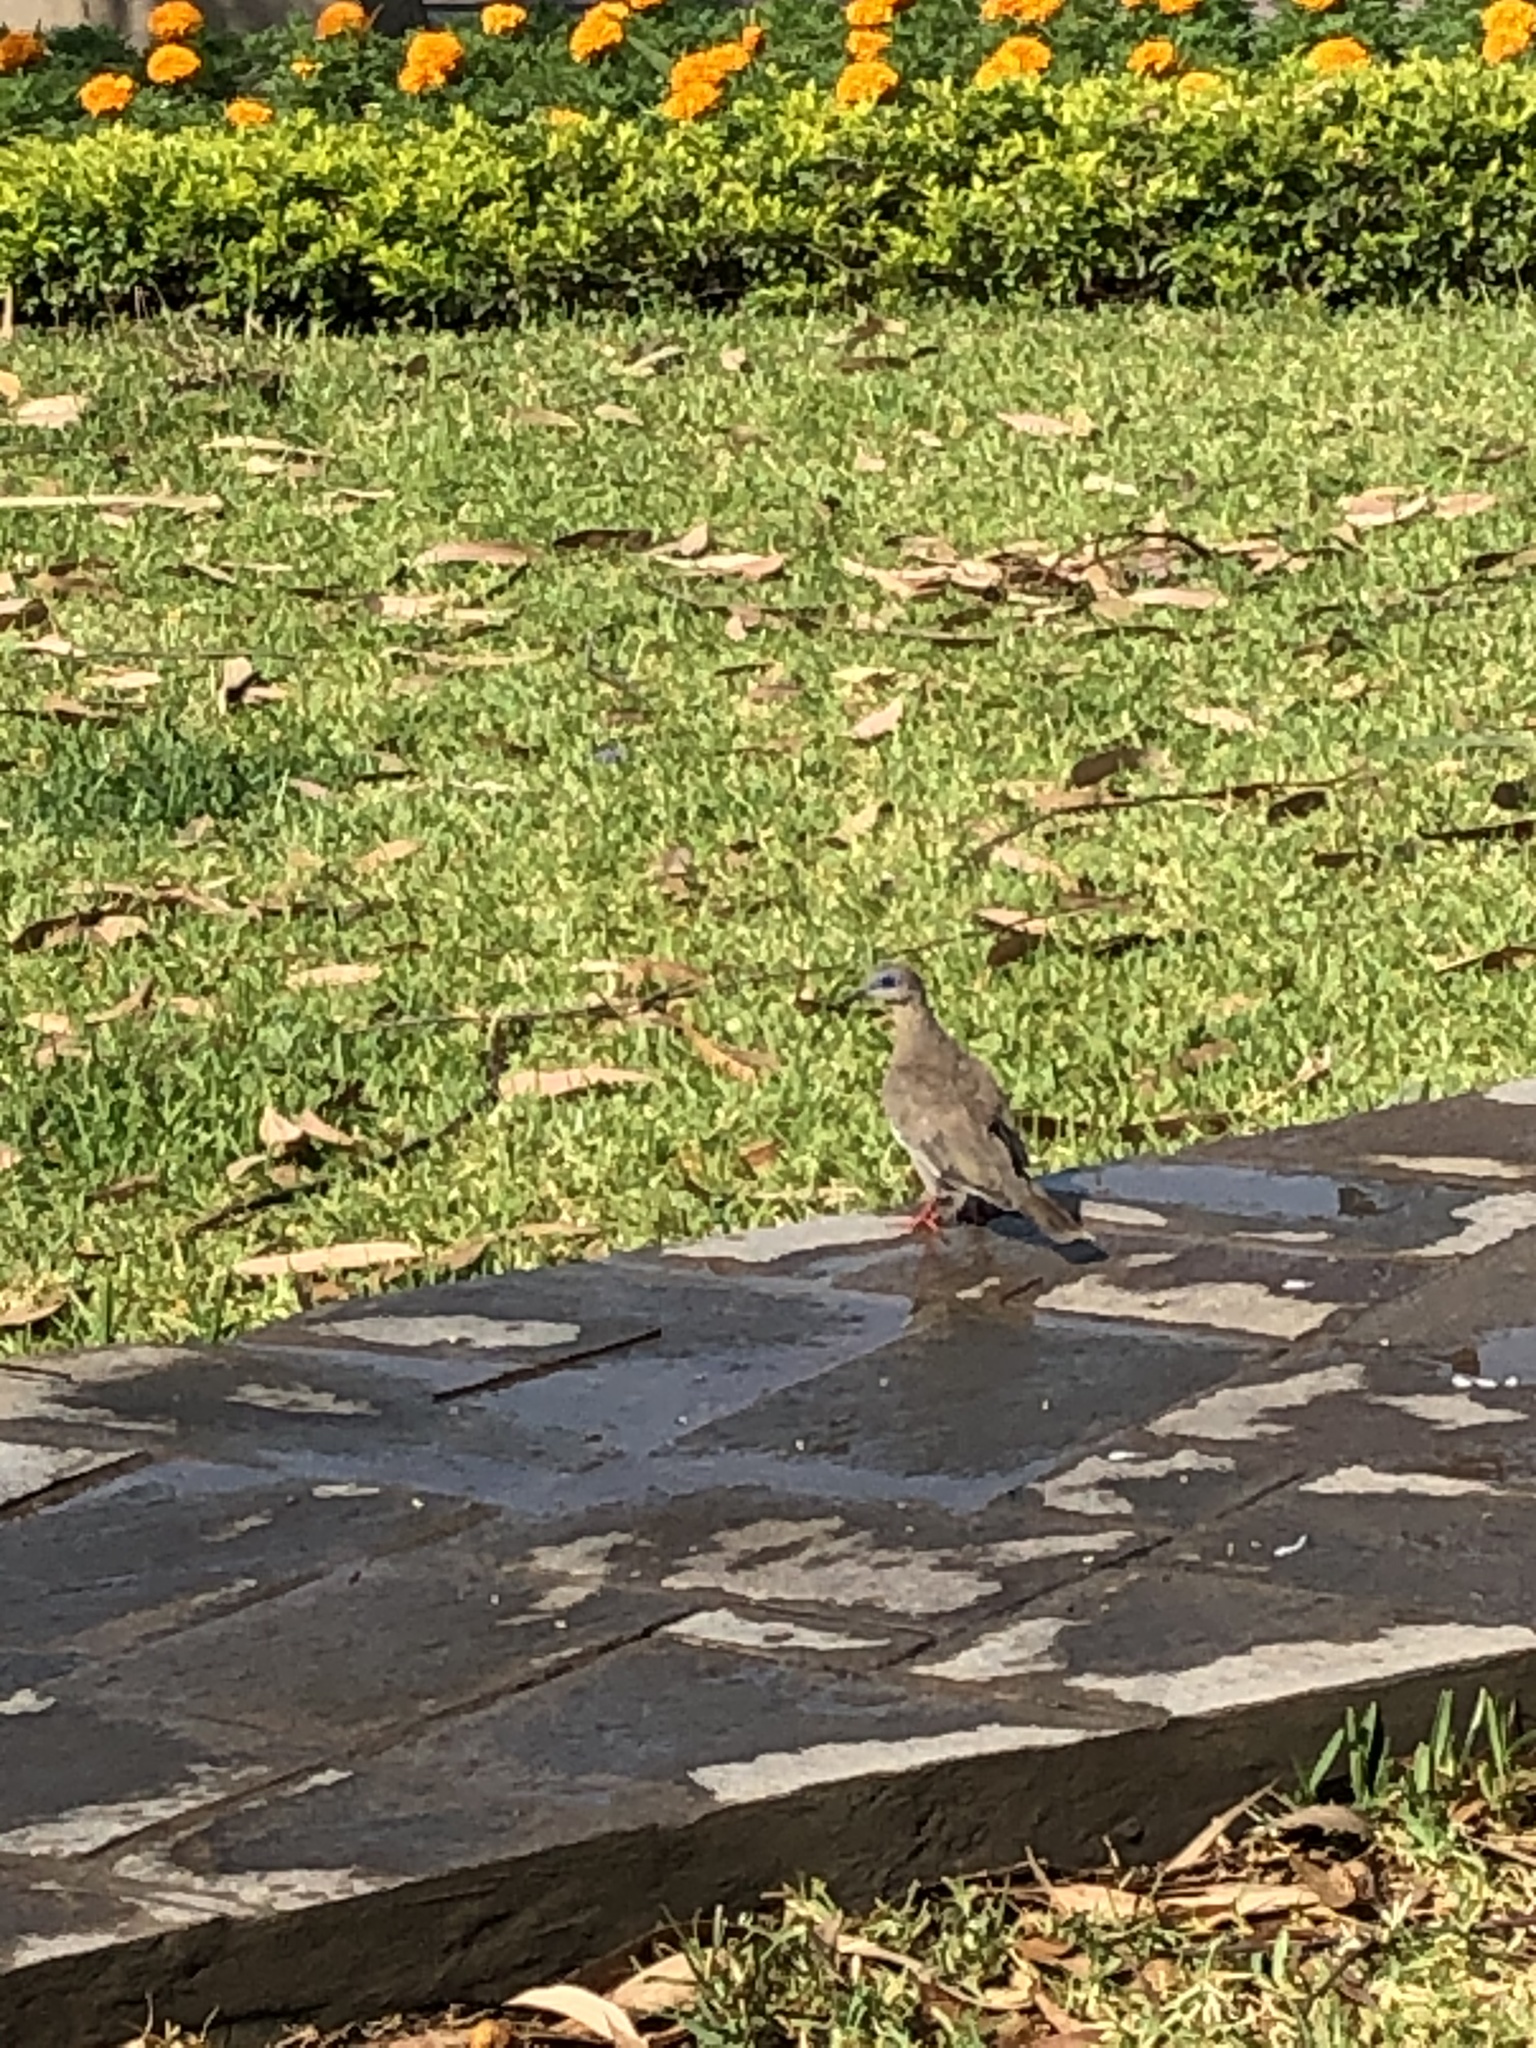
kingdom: Animalia
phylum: Chordata
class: Aves
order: Columbiformes
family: Columbidae
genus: Zenaida
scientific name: Zenaida meloda
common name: West peruvian dove
